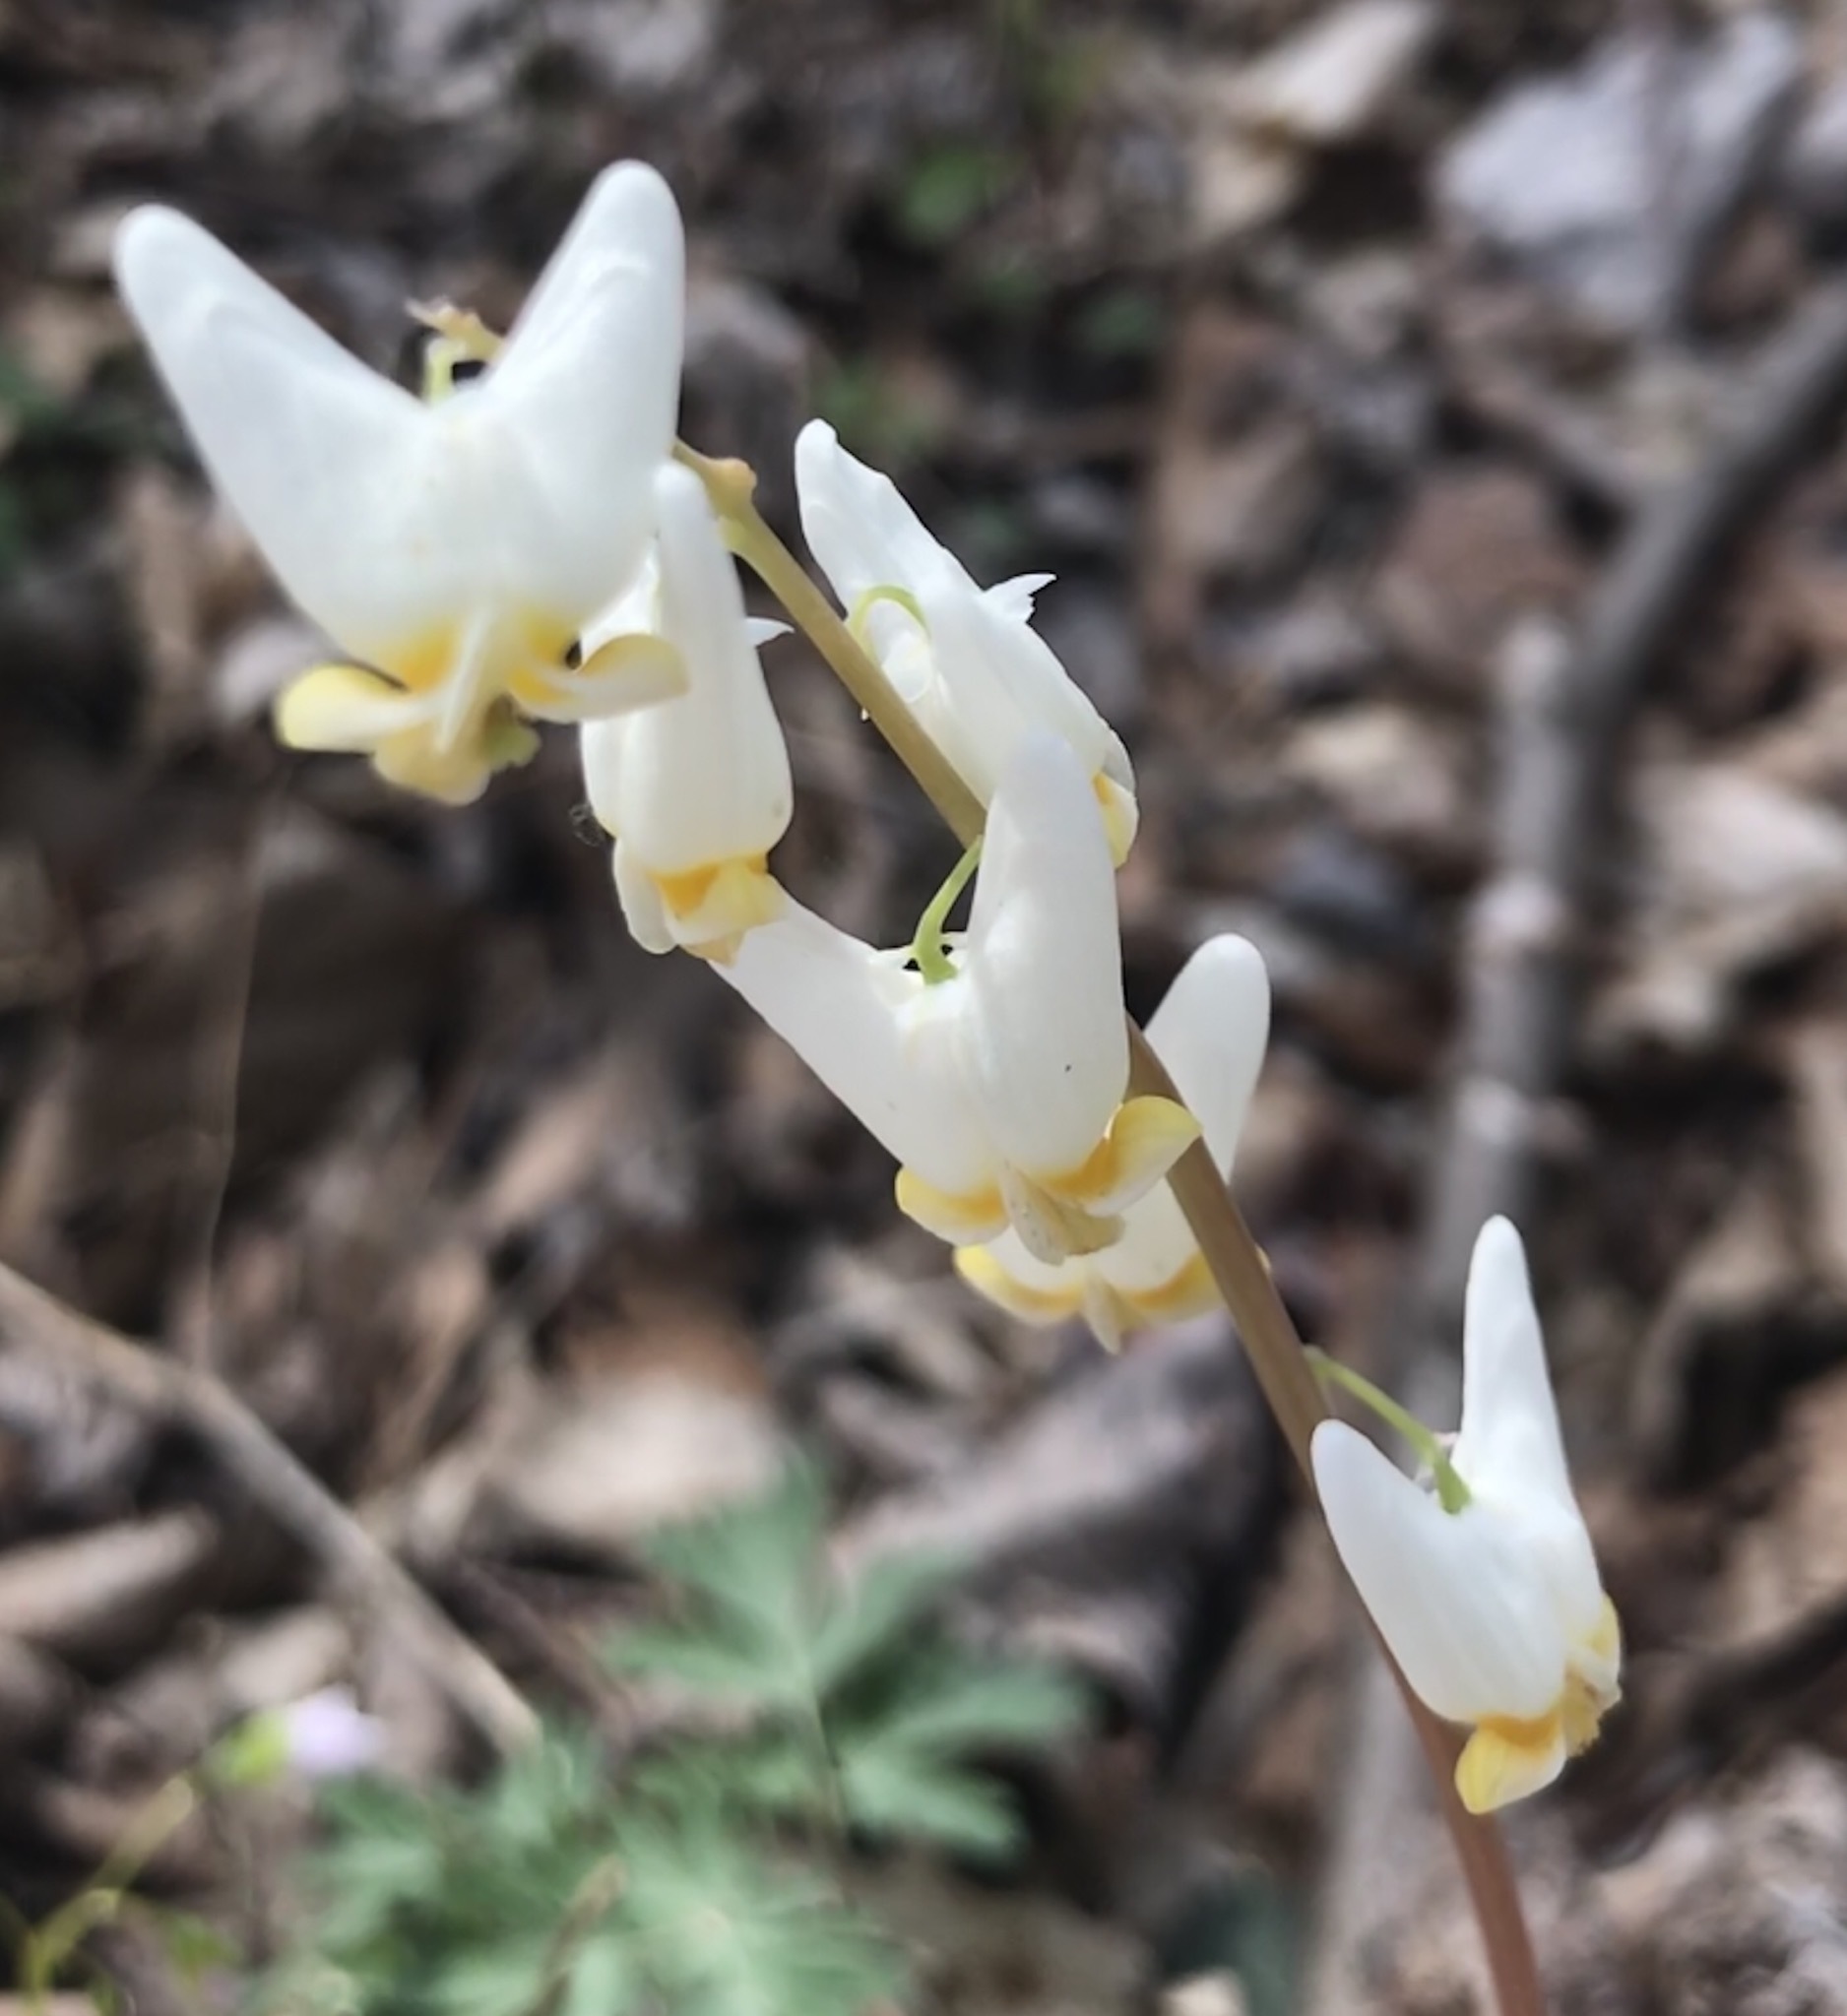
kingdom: Plantae
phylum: Tracheophyta
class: Magnoliopsida
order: Ranunculales
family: Papaveraceae
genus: Dicentra
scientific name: Dicentra cucullaria
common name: Dutchman's breeches
